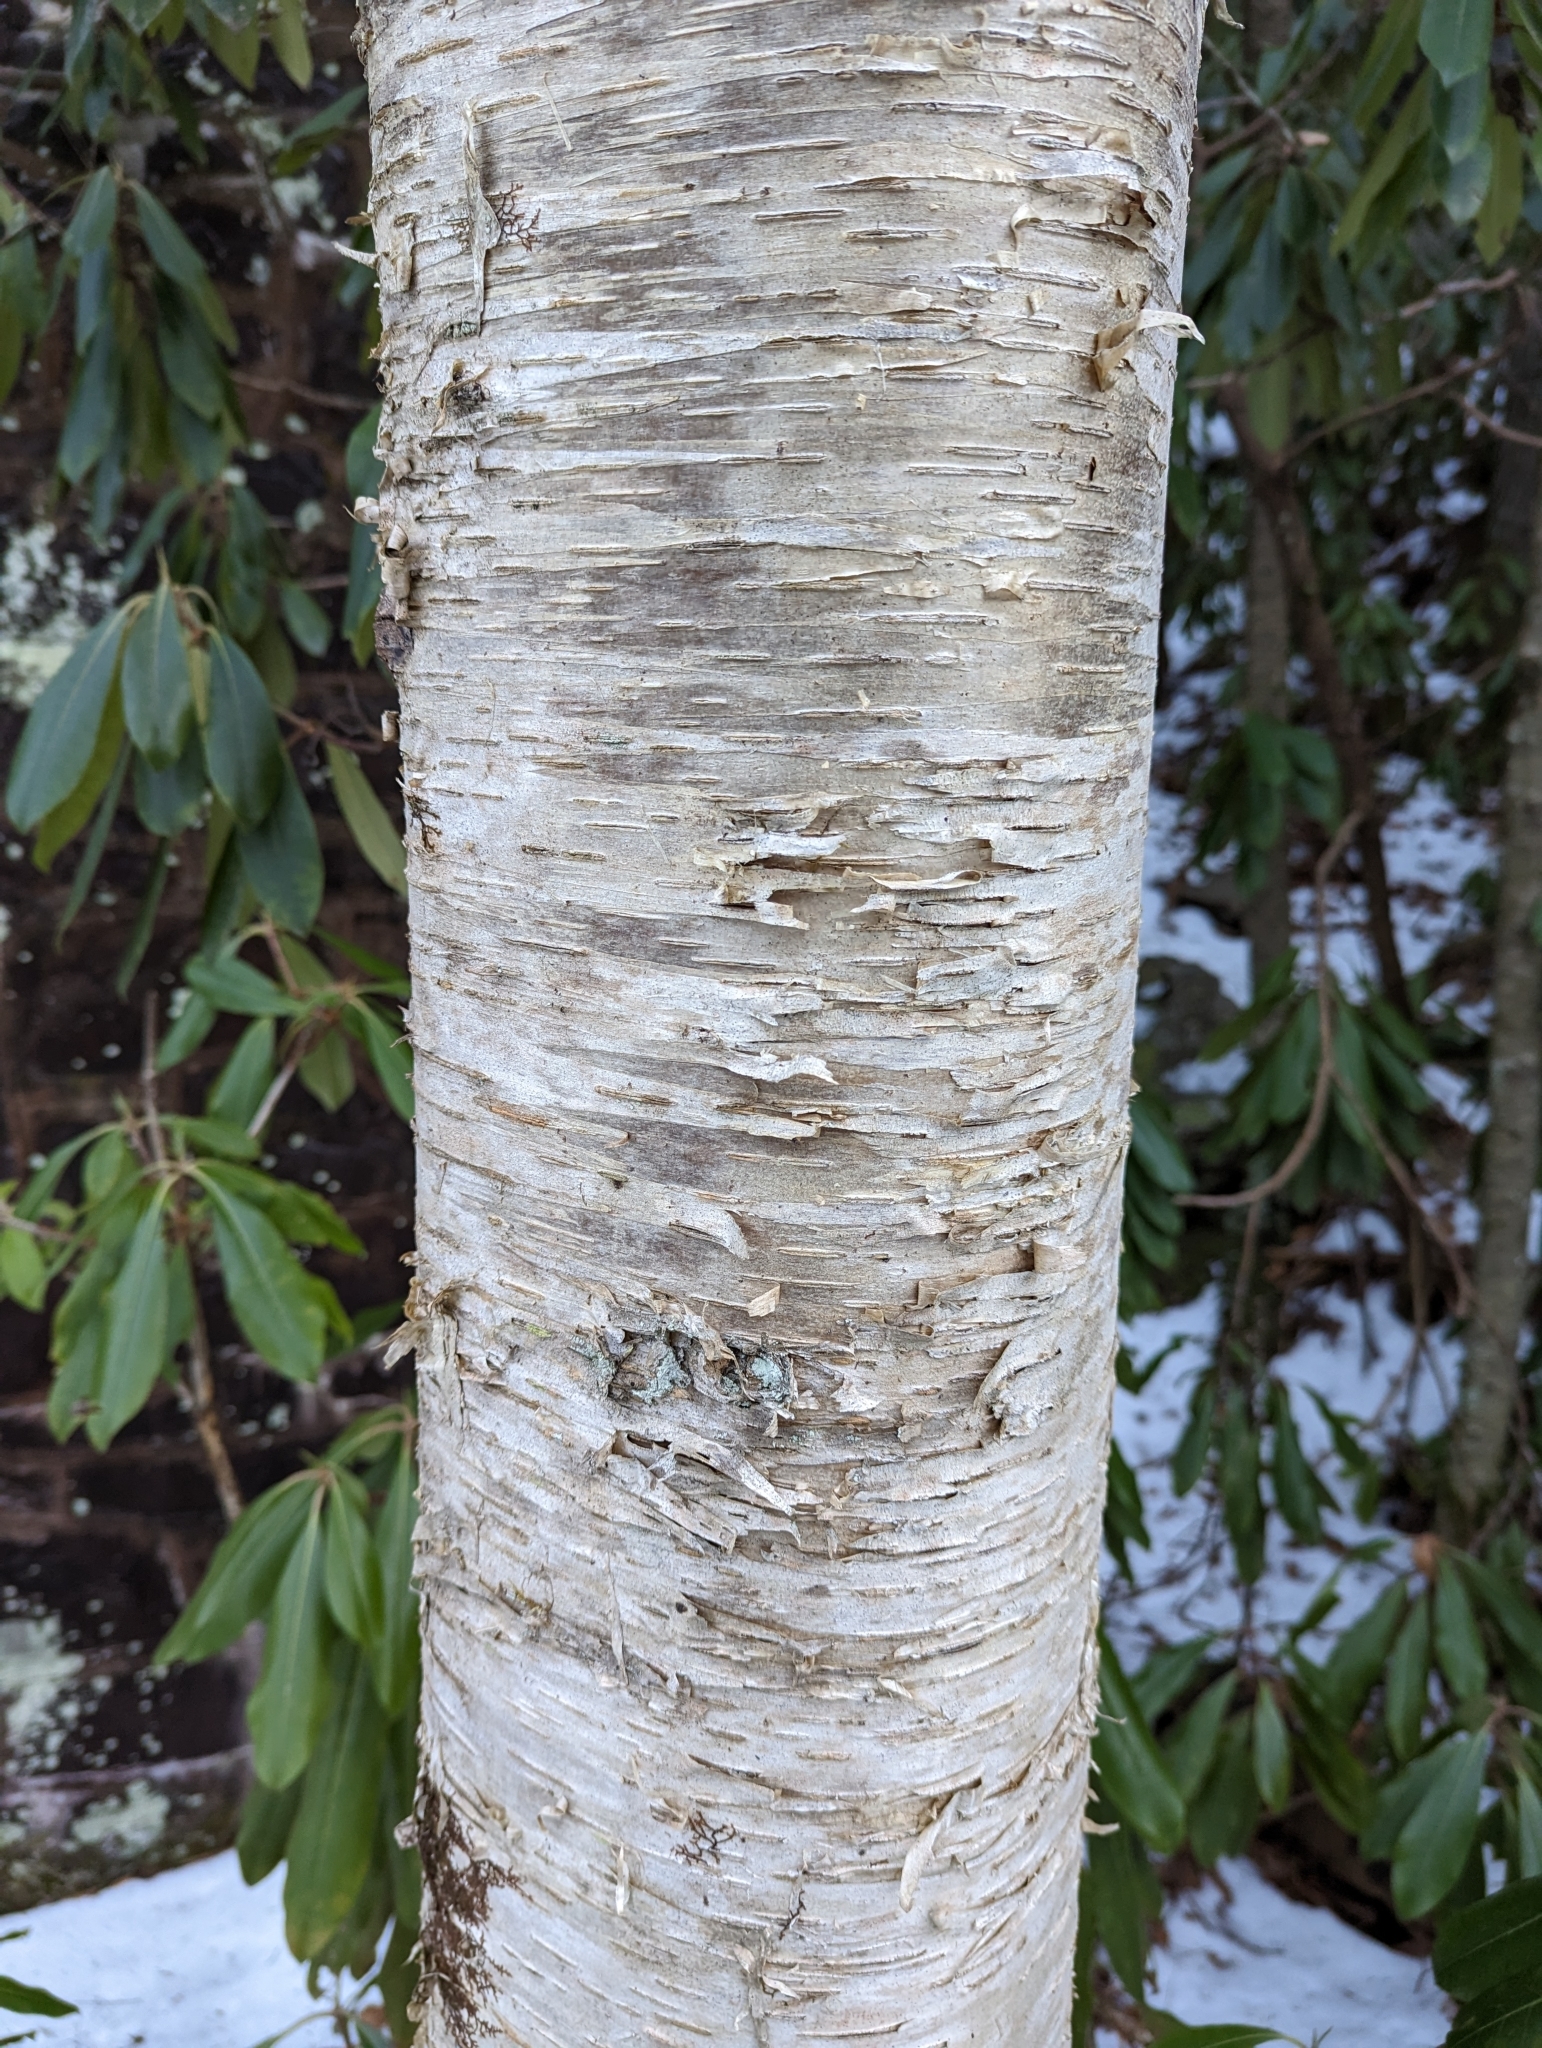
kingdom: Plantae
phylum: Tracheophyta
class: Magnoliopsida
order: Fagales
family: Betulaceae
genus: Betula
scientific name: Betula alleghaniensis
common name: Yellow birch
